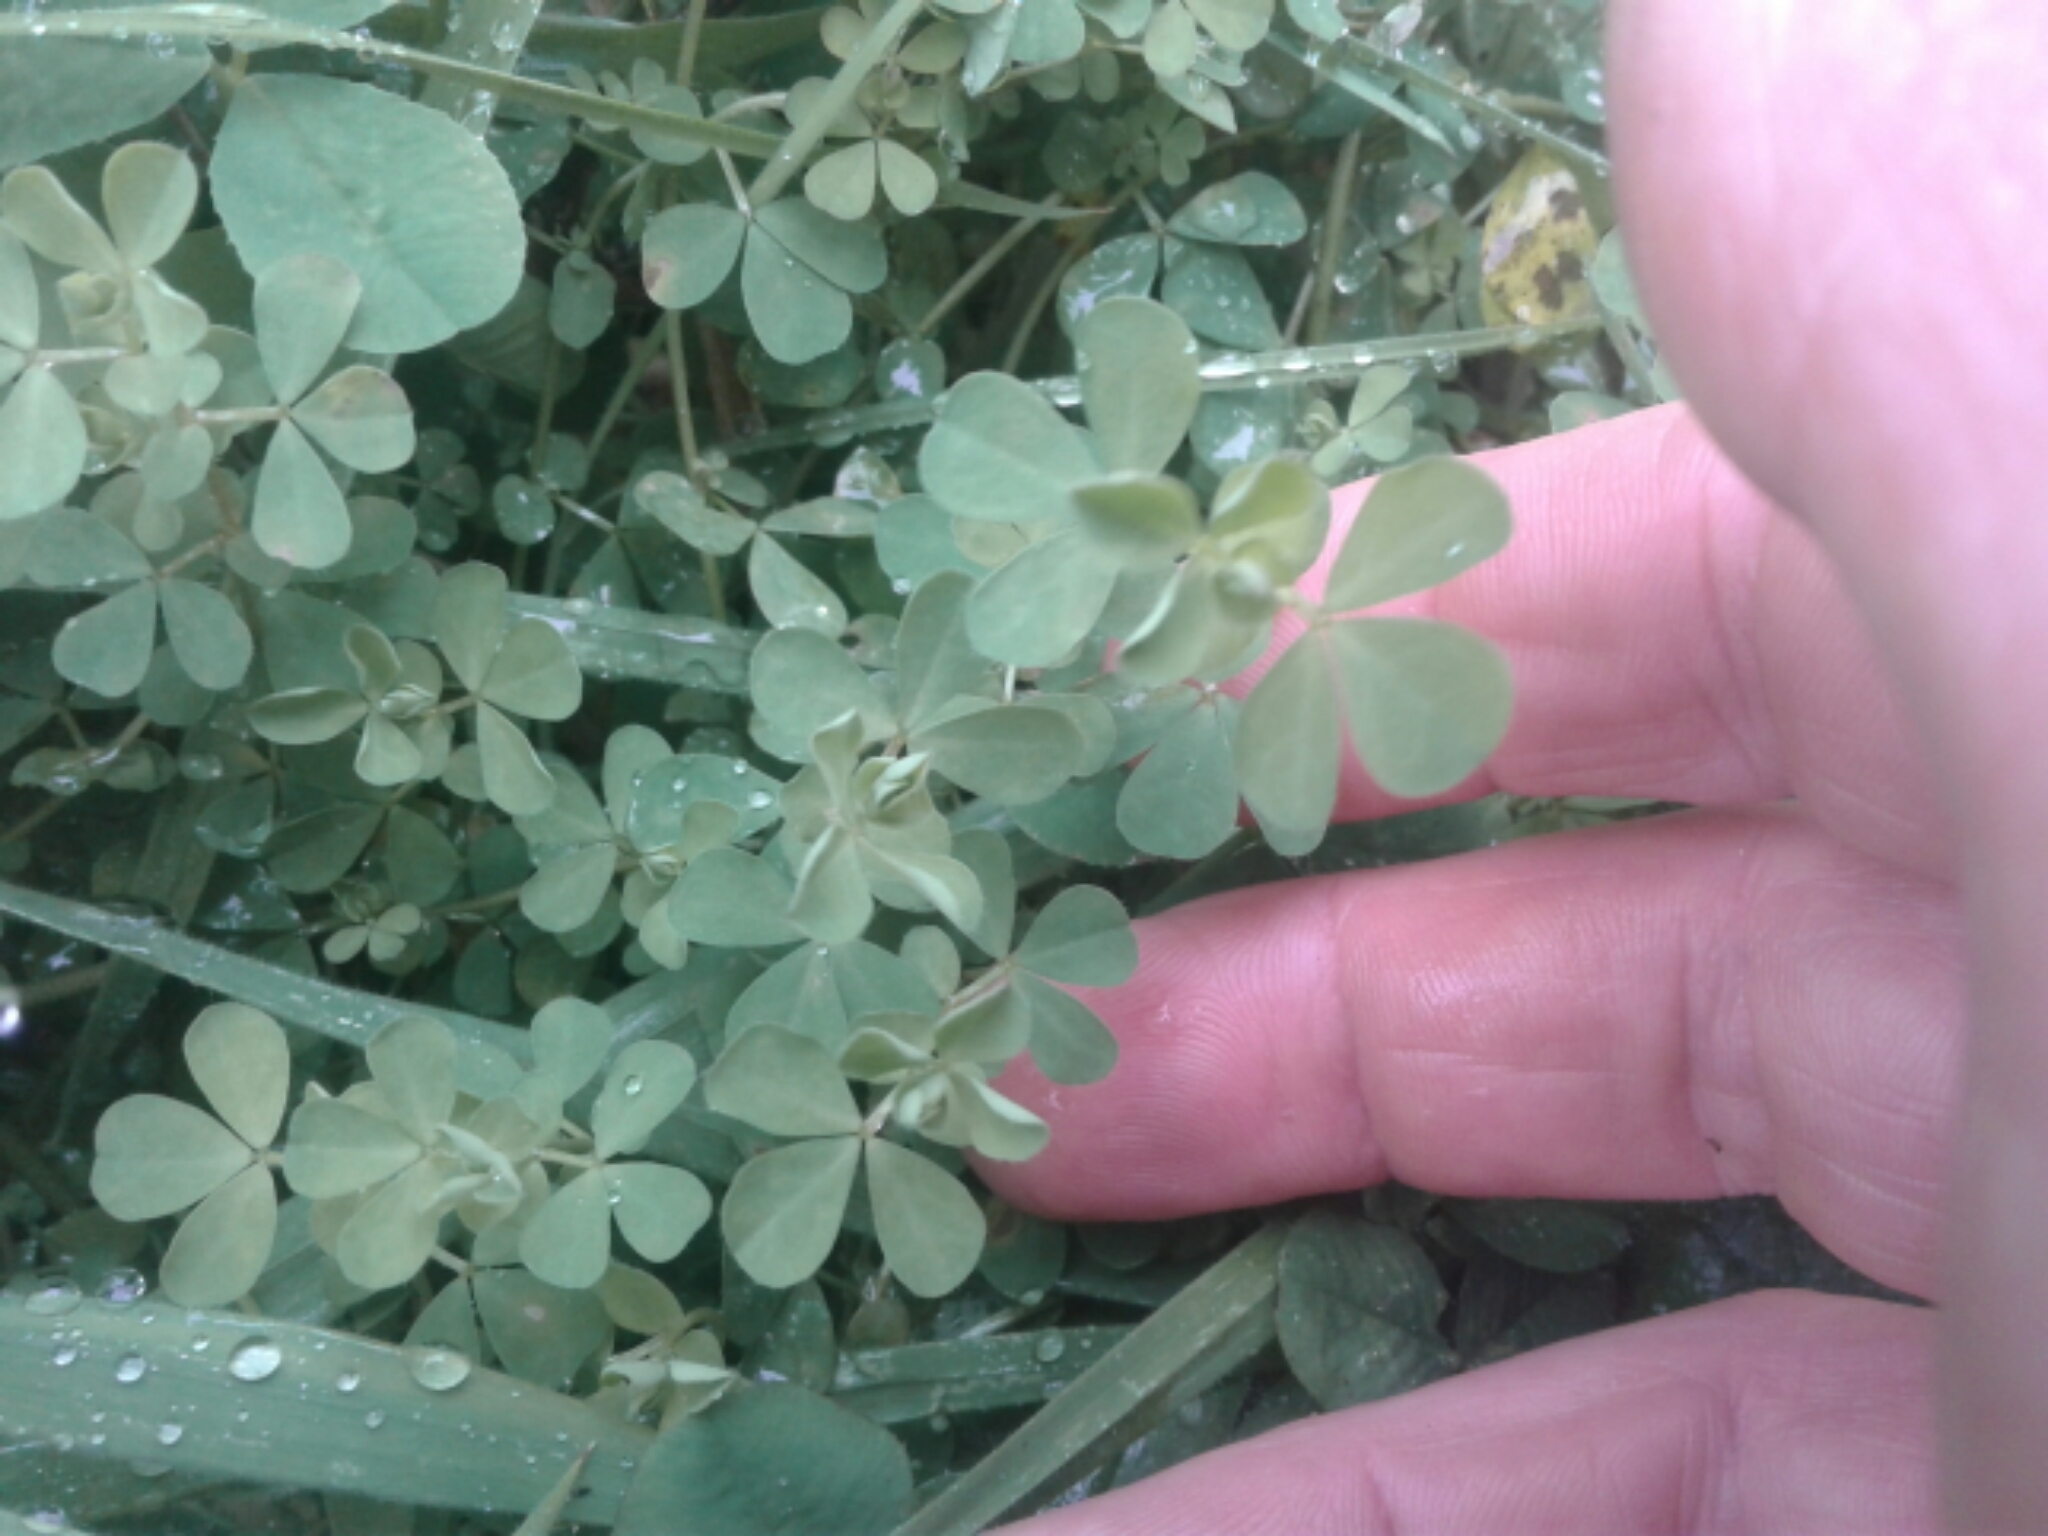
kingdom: Plantae
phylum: Tracheophyta
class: Magnoliopsida
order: Fabales
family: Fabaceae
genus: Lotus
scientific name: Lotus pedunculatus
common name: Greater birdsfoot-trefoil
